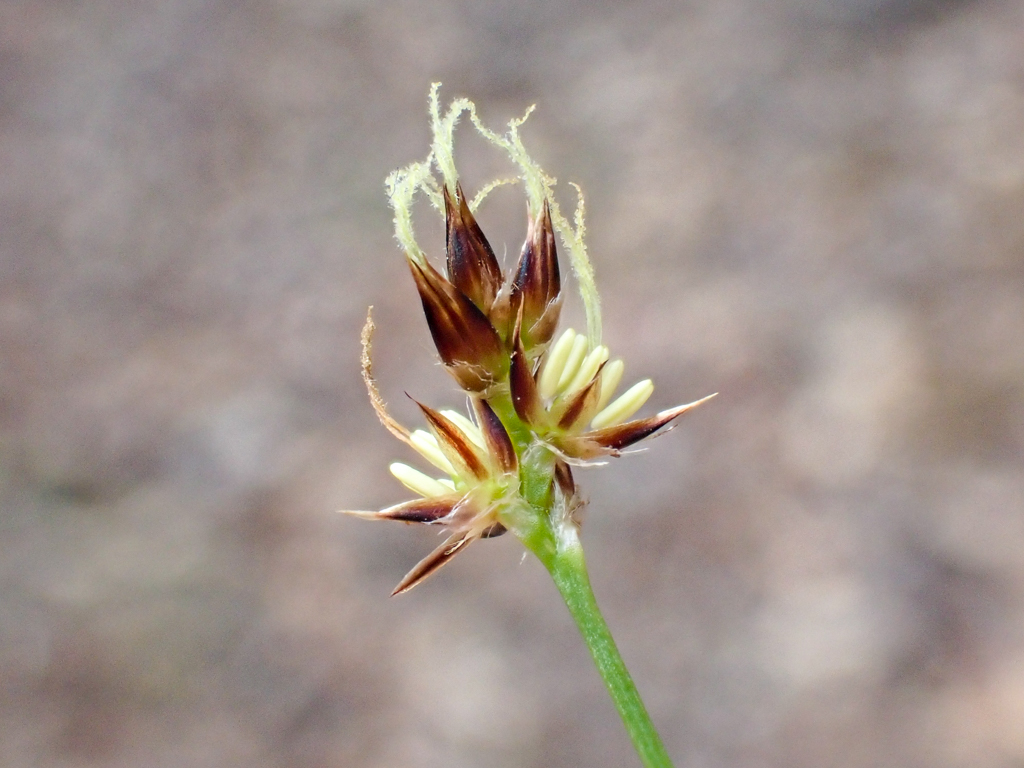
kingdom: Plantae
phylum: Tracheophyta
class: Liliopsida
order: Poales
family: Juncaceae
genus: Luzula
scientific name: Luzula macrantha
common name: Large-anthered woodrush
